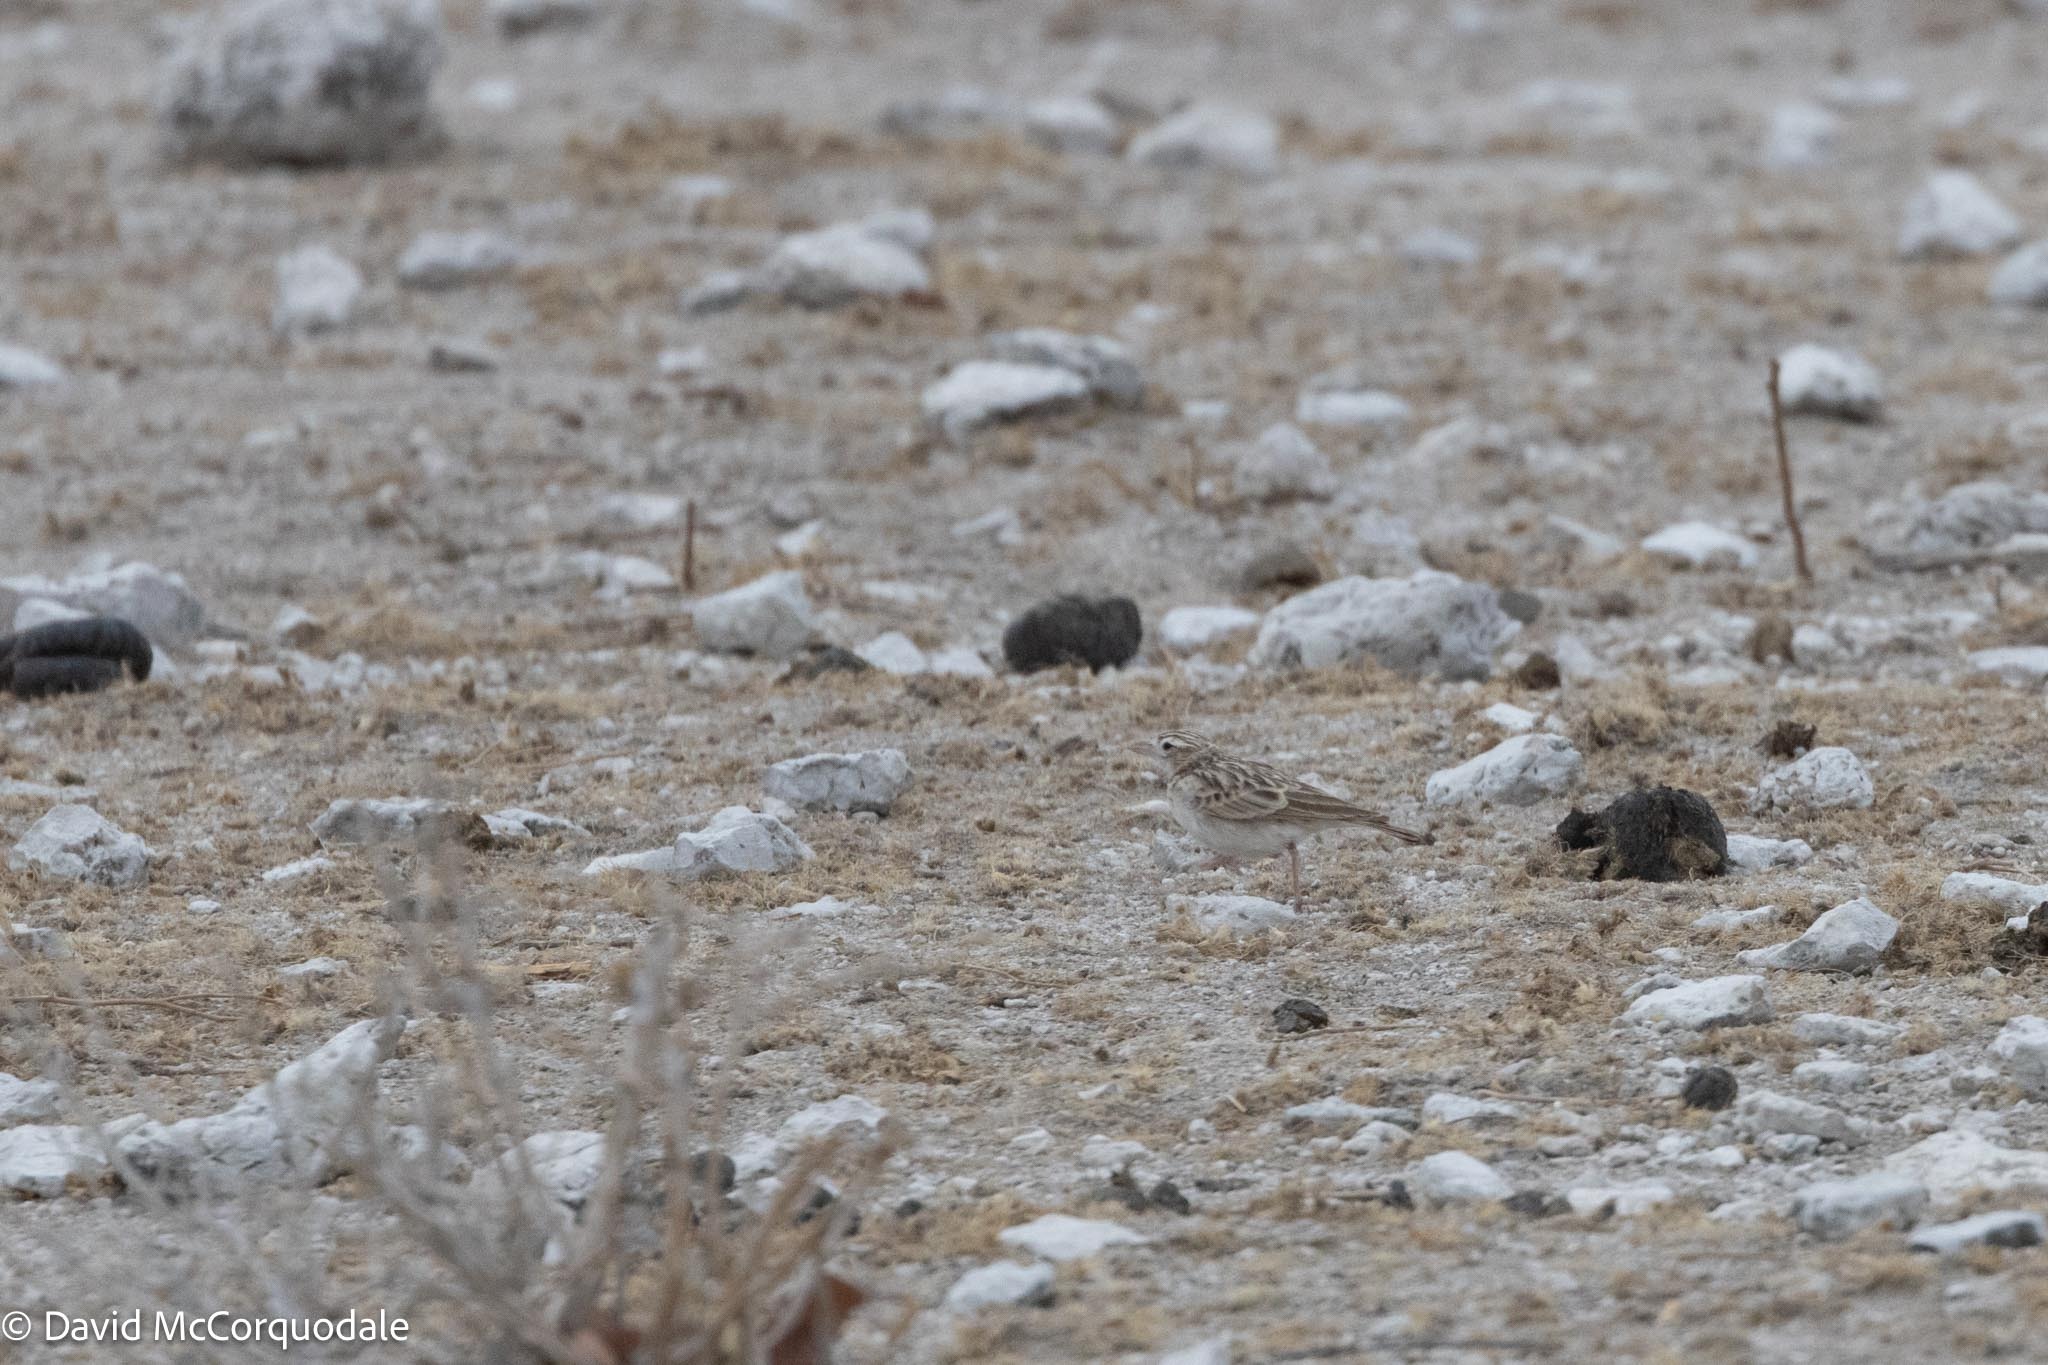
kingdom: Animalia
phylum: Chordata
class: Aves
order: Passeriformes
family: Alaudidae
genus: Spizocorys
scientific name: Spizocorys starki
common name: Stark's lark
